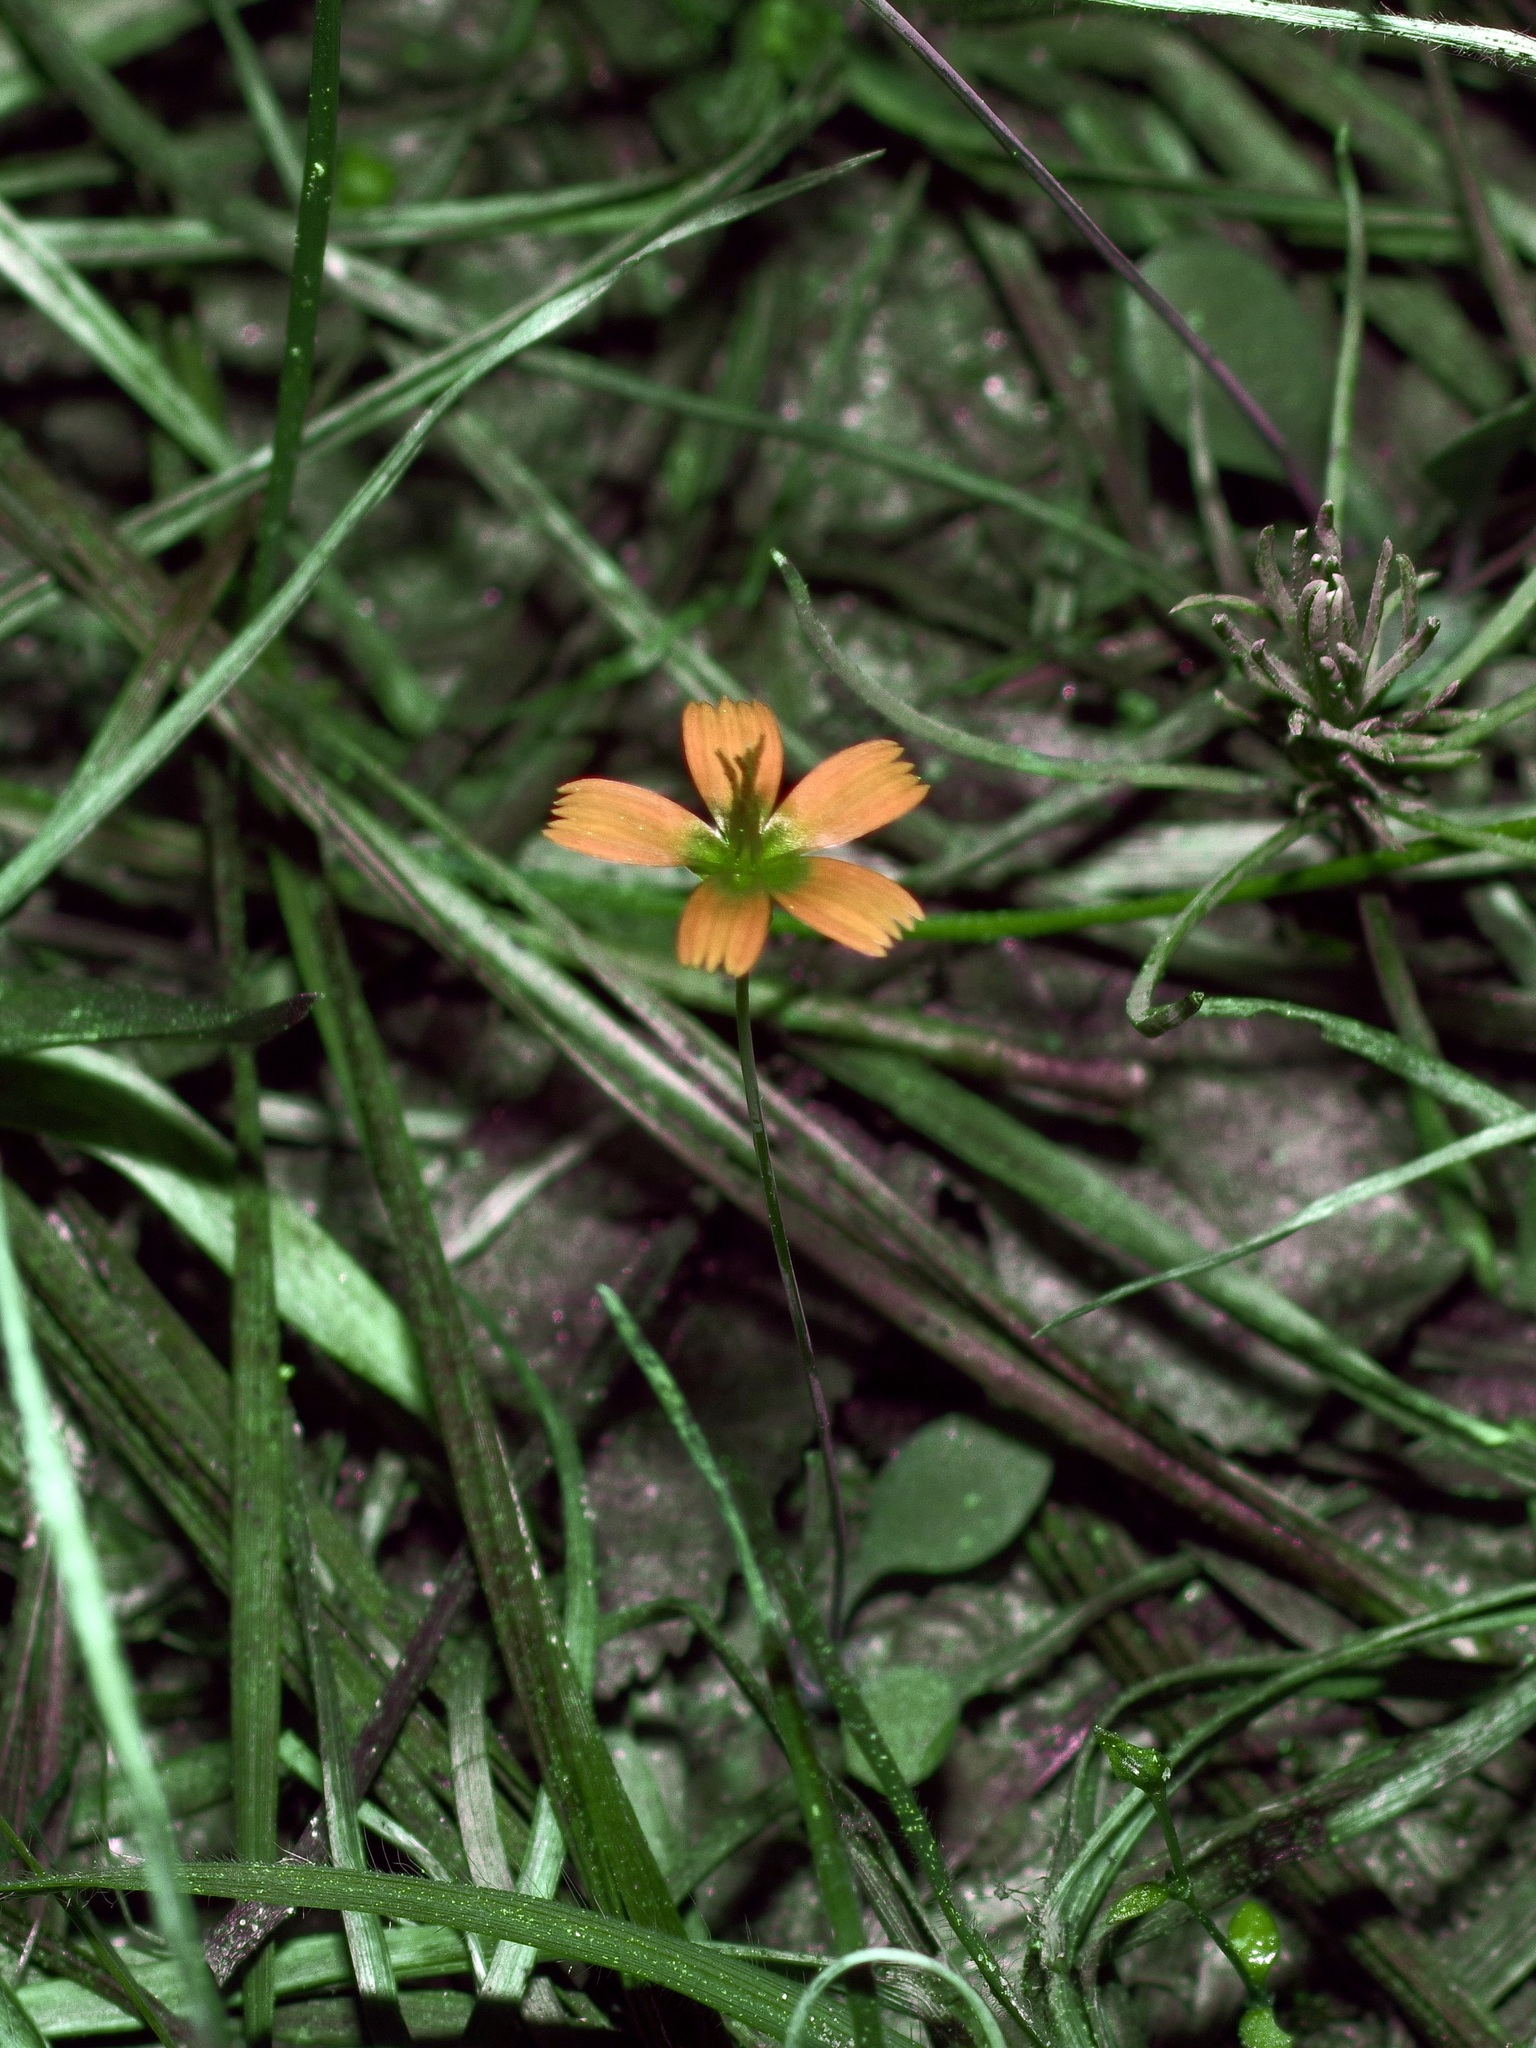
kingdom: Plantae
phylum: Tracheophyta
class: Magnoliopsida
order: Asterales
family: Asteraceae
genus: Krigia
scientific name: Krigia occidentalis
